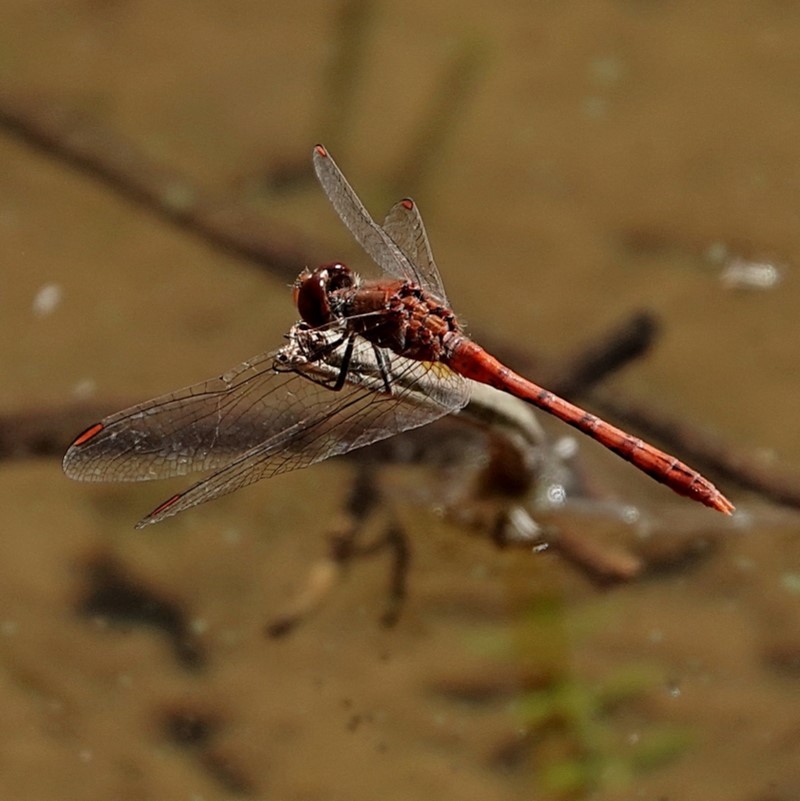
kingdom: Animalia
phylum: Arthropoda
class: Insecta
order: Odonata
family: Libellulidae
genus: Diplacodes
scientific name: Diplacodes bipunctata
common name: Red percher dragonfly
